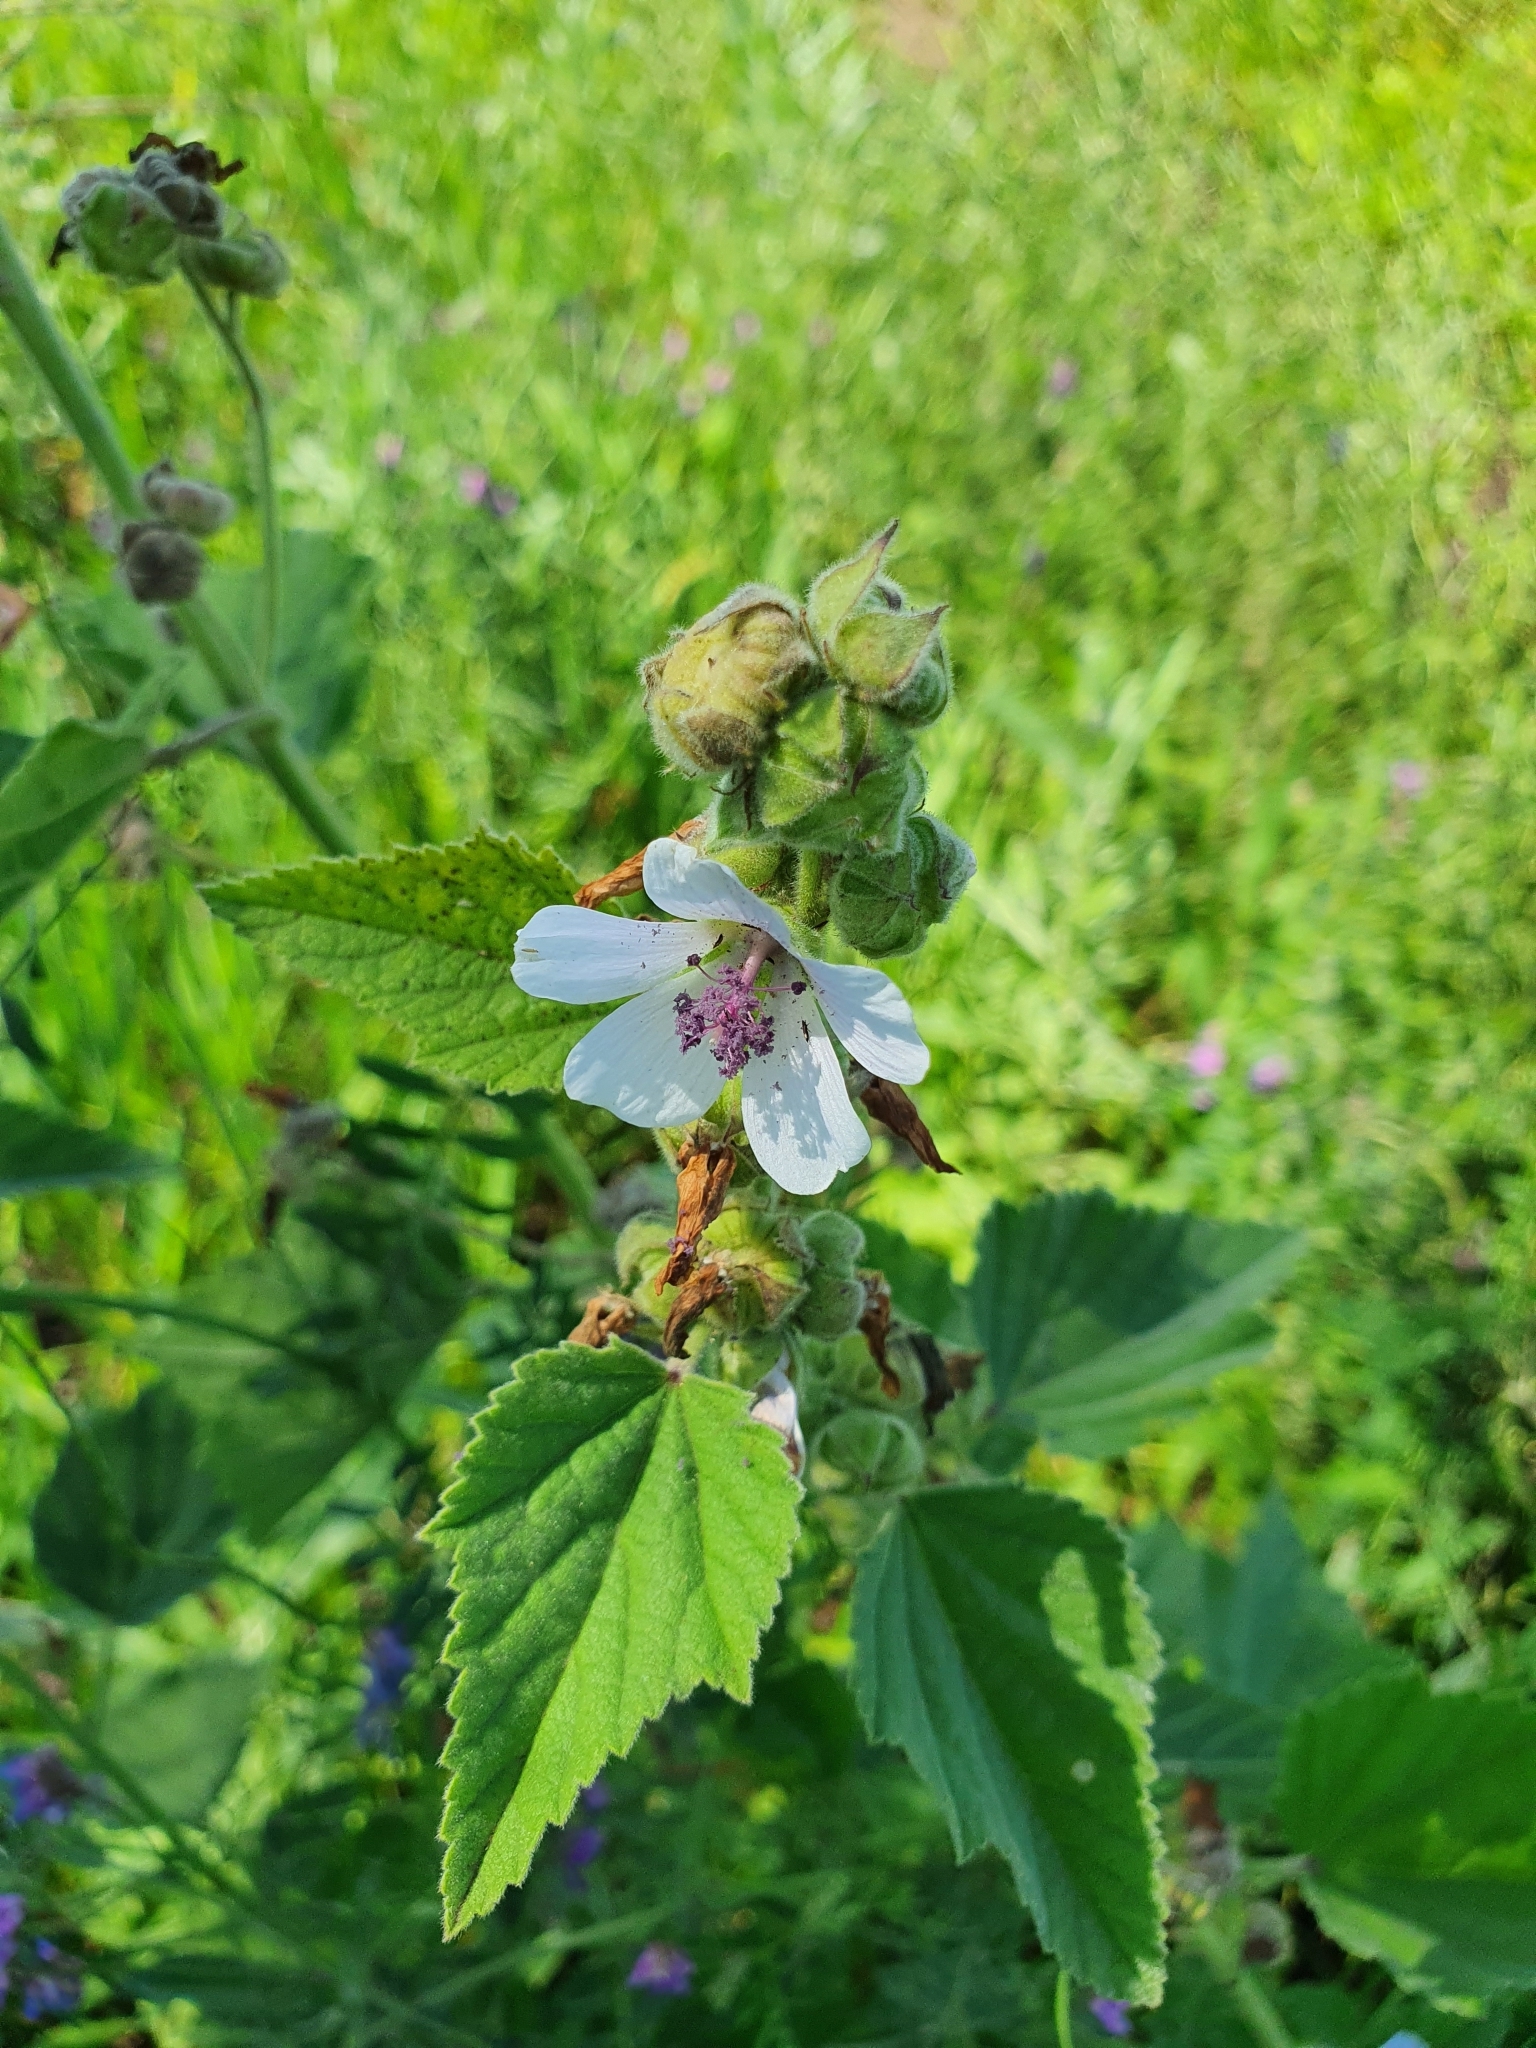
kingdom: Plantae
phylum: Tracheophyta
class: Magnoliopsida
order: Malvales
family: Malvaceae
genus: Althaea
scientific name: Althaea officinalis
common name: Marsh-mallow
